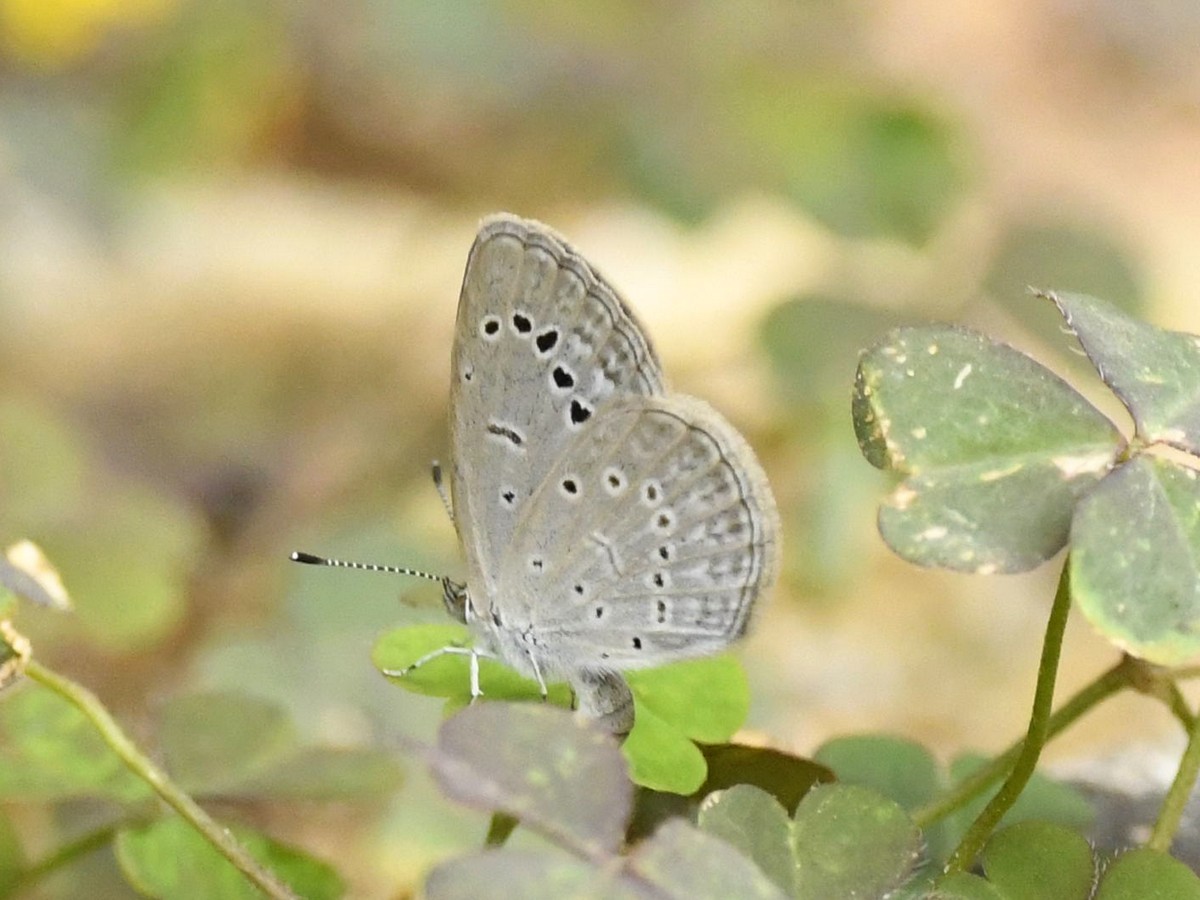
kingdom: Animalia
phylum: Arthropoda
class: Insecta
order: Lepidoptera
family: Lycaenidae
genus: Zizeeria
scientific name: Zizeeria karsandra
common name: Dark grass blue
